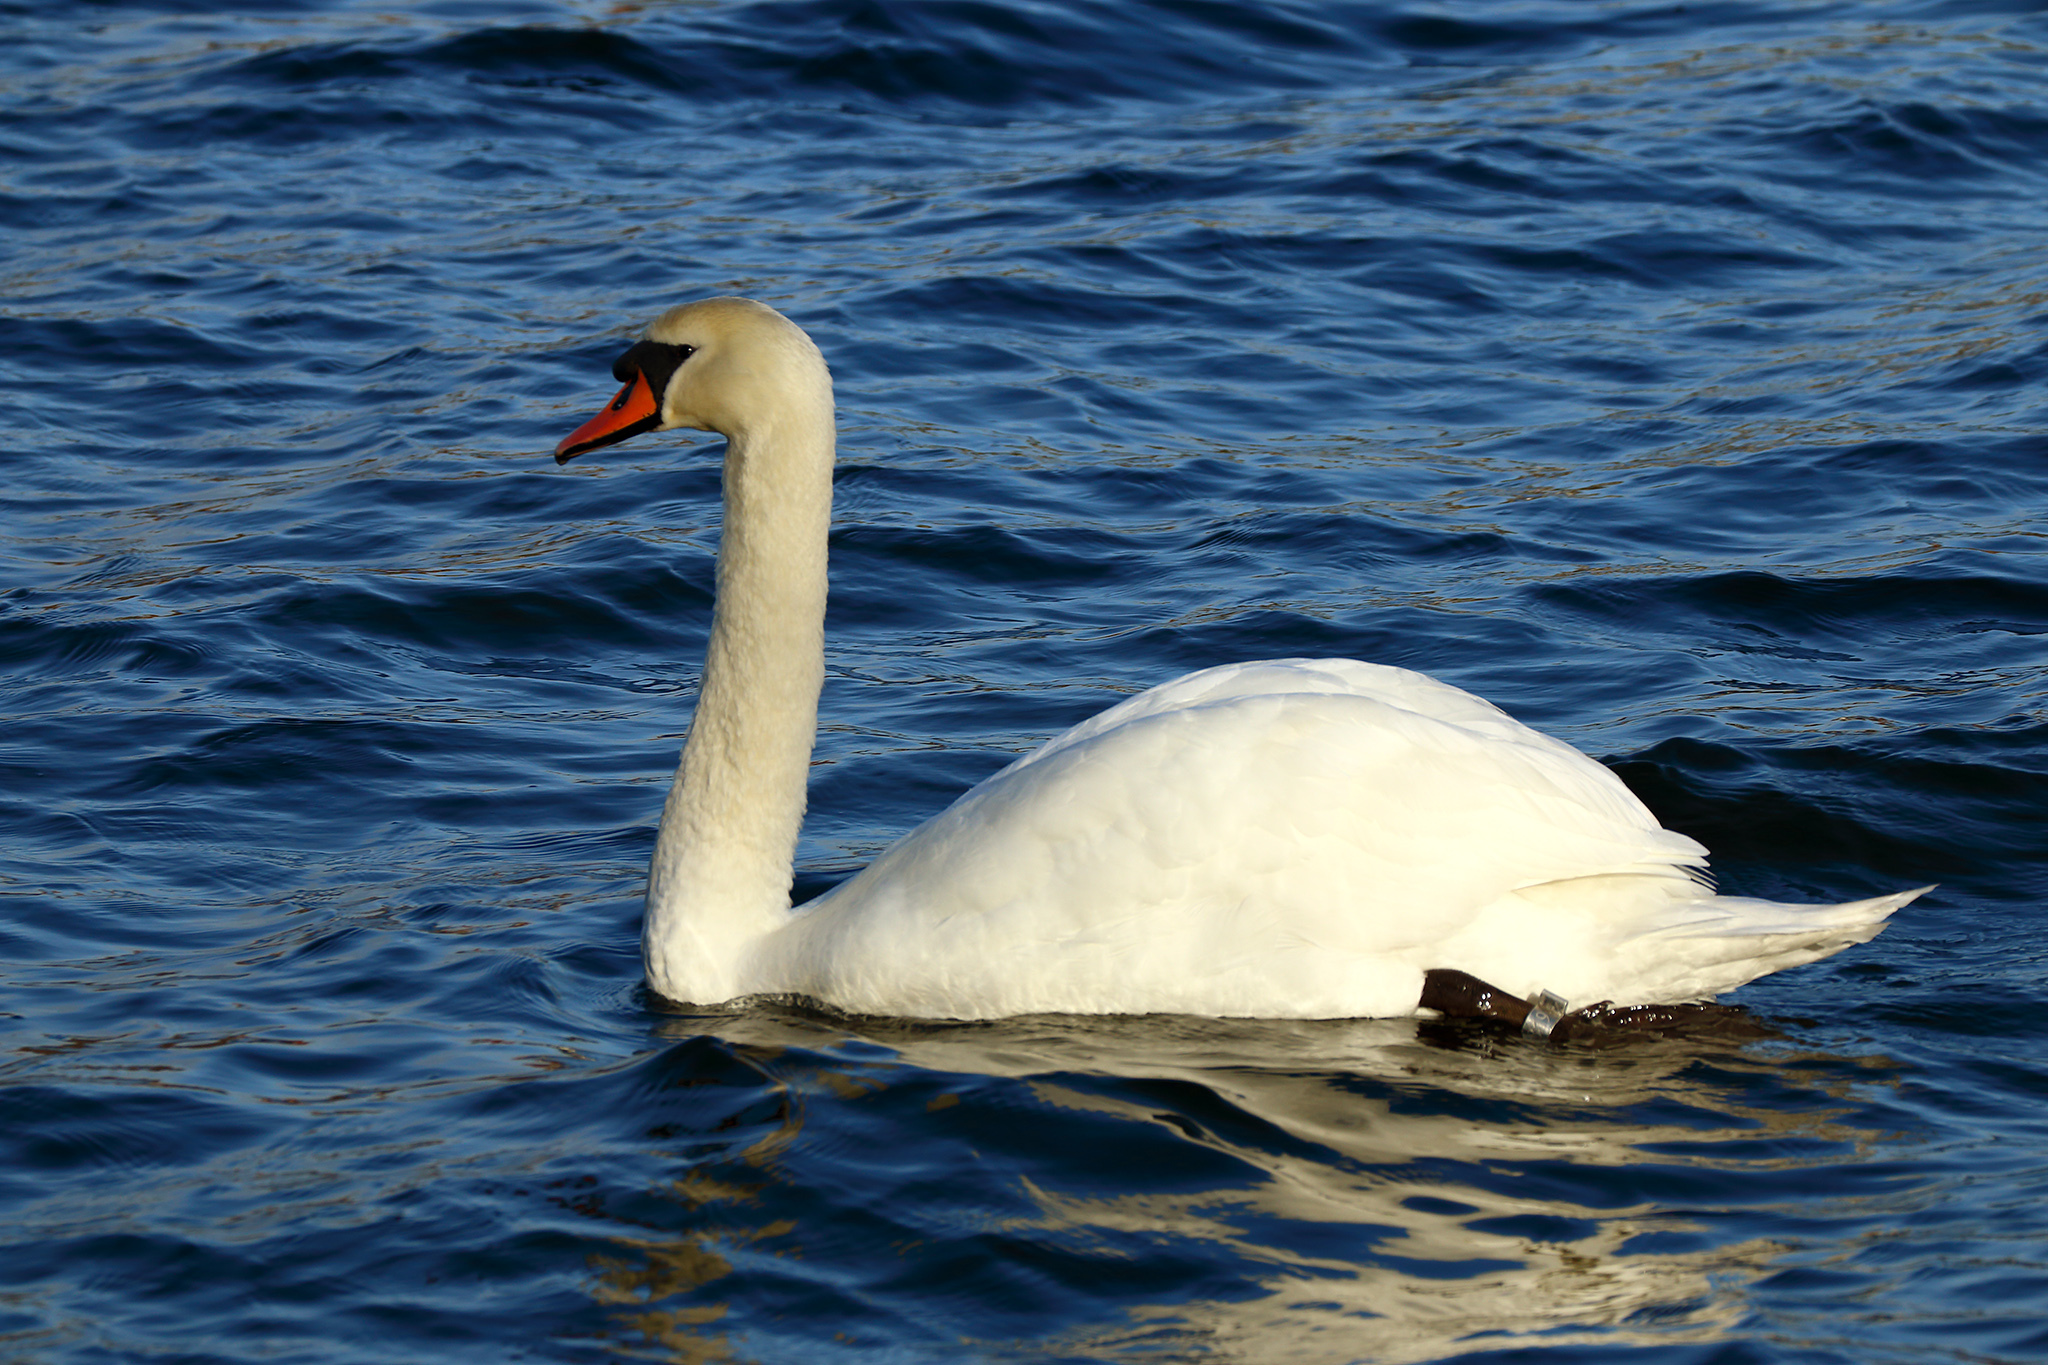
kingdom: Animalia
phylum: Chordata
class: Aves
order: Anseriformes
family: Anatidae
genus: Cygnus
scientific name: Cygnus olor
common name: Mute swan
